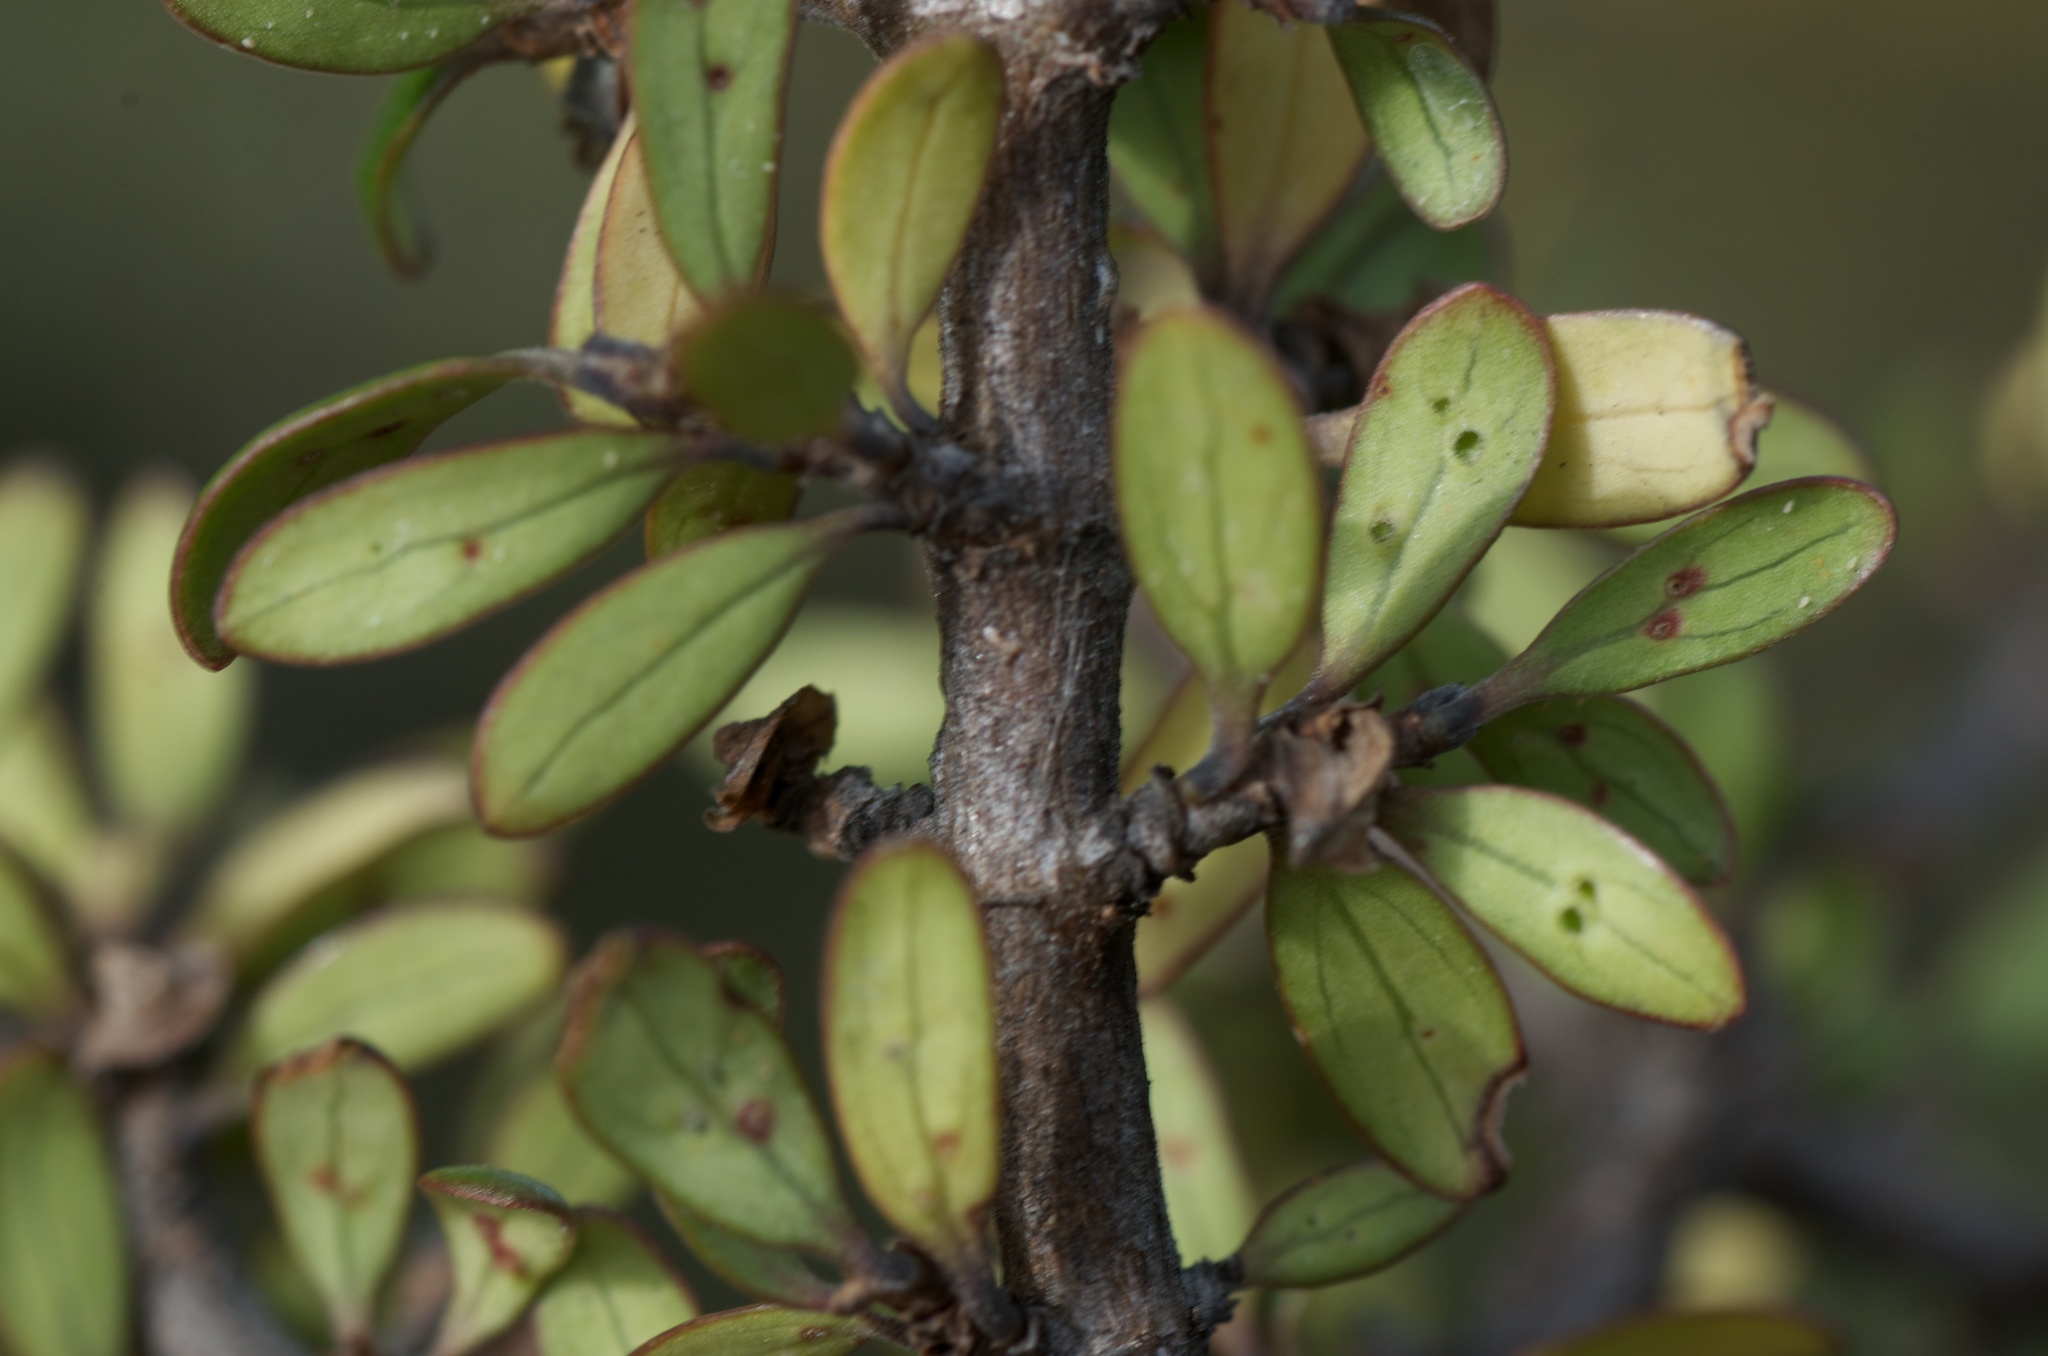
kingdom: Plantae
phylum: Tracheophyta
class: Magnoliopsida
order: Gentianales
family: Rubiaceae
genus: Coprosma
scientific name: Coprosma propinqua
